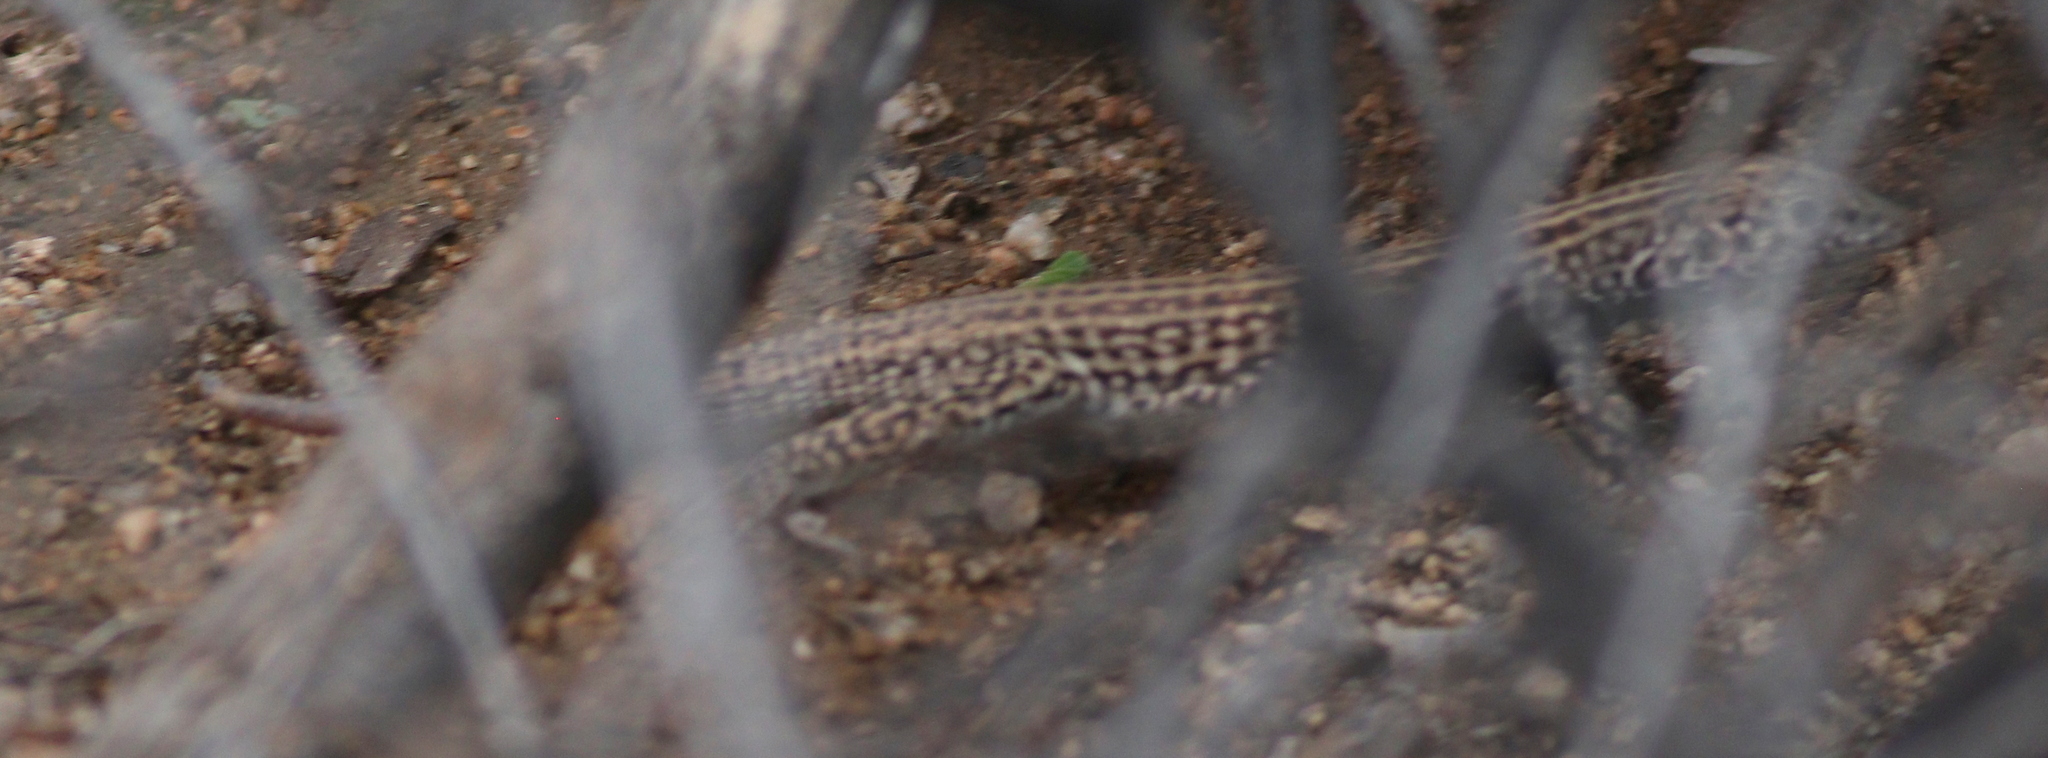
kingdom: Animalia
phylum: Chordata
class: Squamata
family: Teiidae
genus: Aspidoscelis
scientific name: Aspidoscelis tigris
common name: Tiger whiptail
